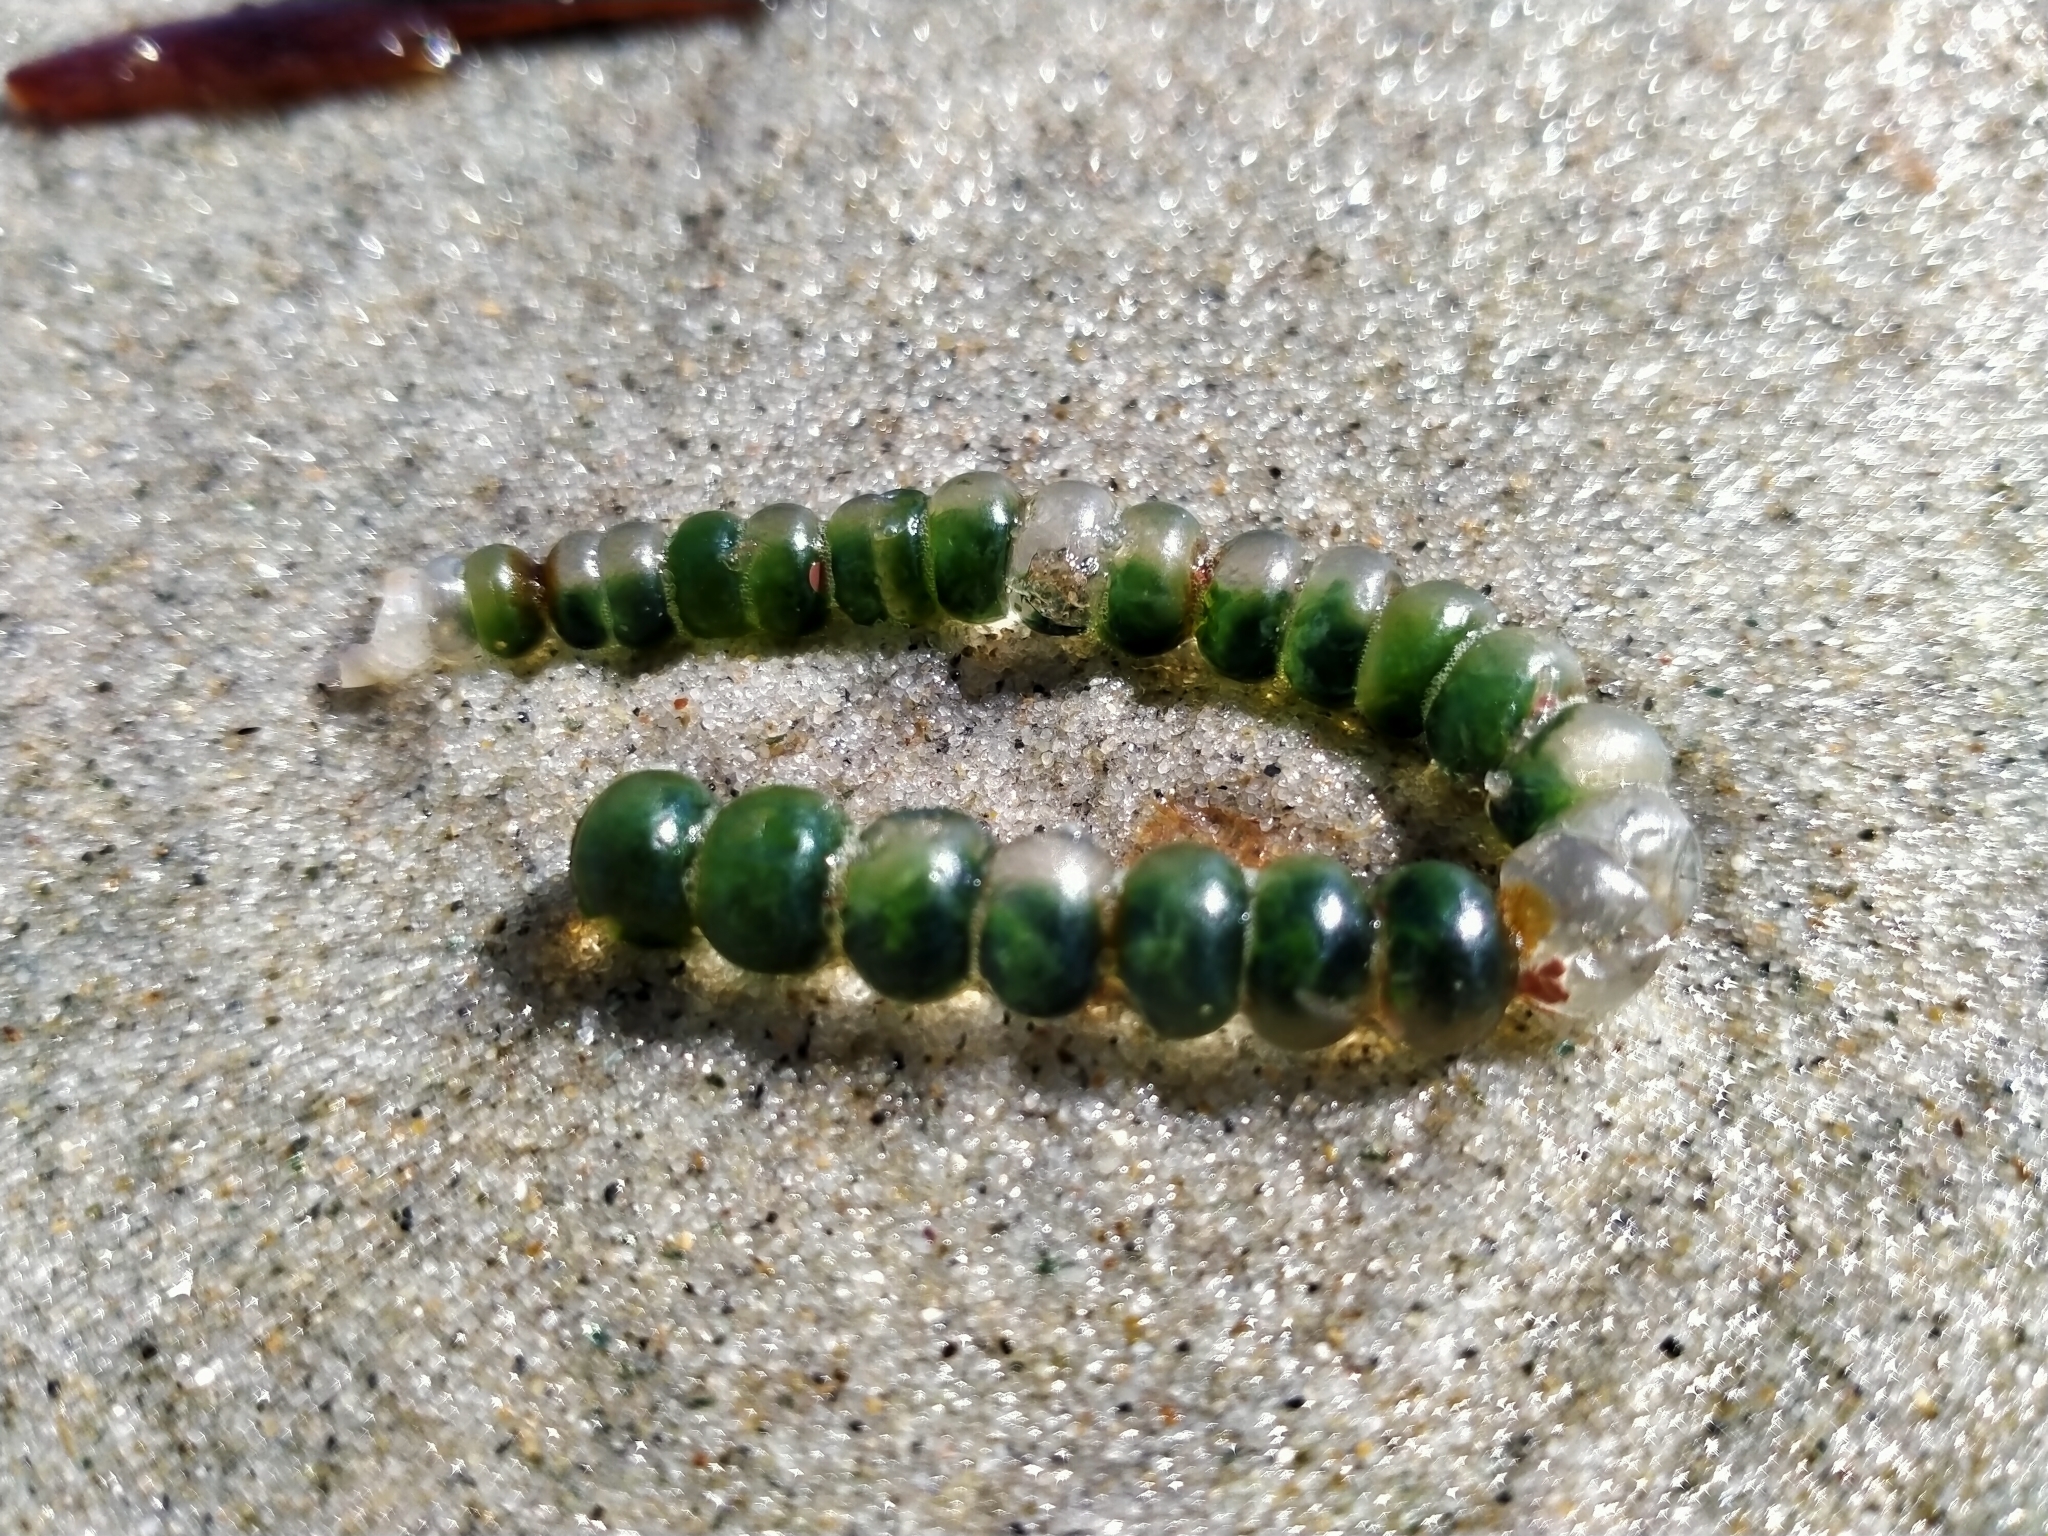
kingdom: Plantae
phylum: Chlorophyta
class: Ulvophyceae
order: Cladophorales
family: Cladophoraceae
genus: Chaetomorpha
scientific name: Chaetomorpha coliformis
